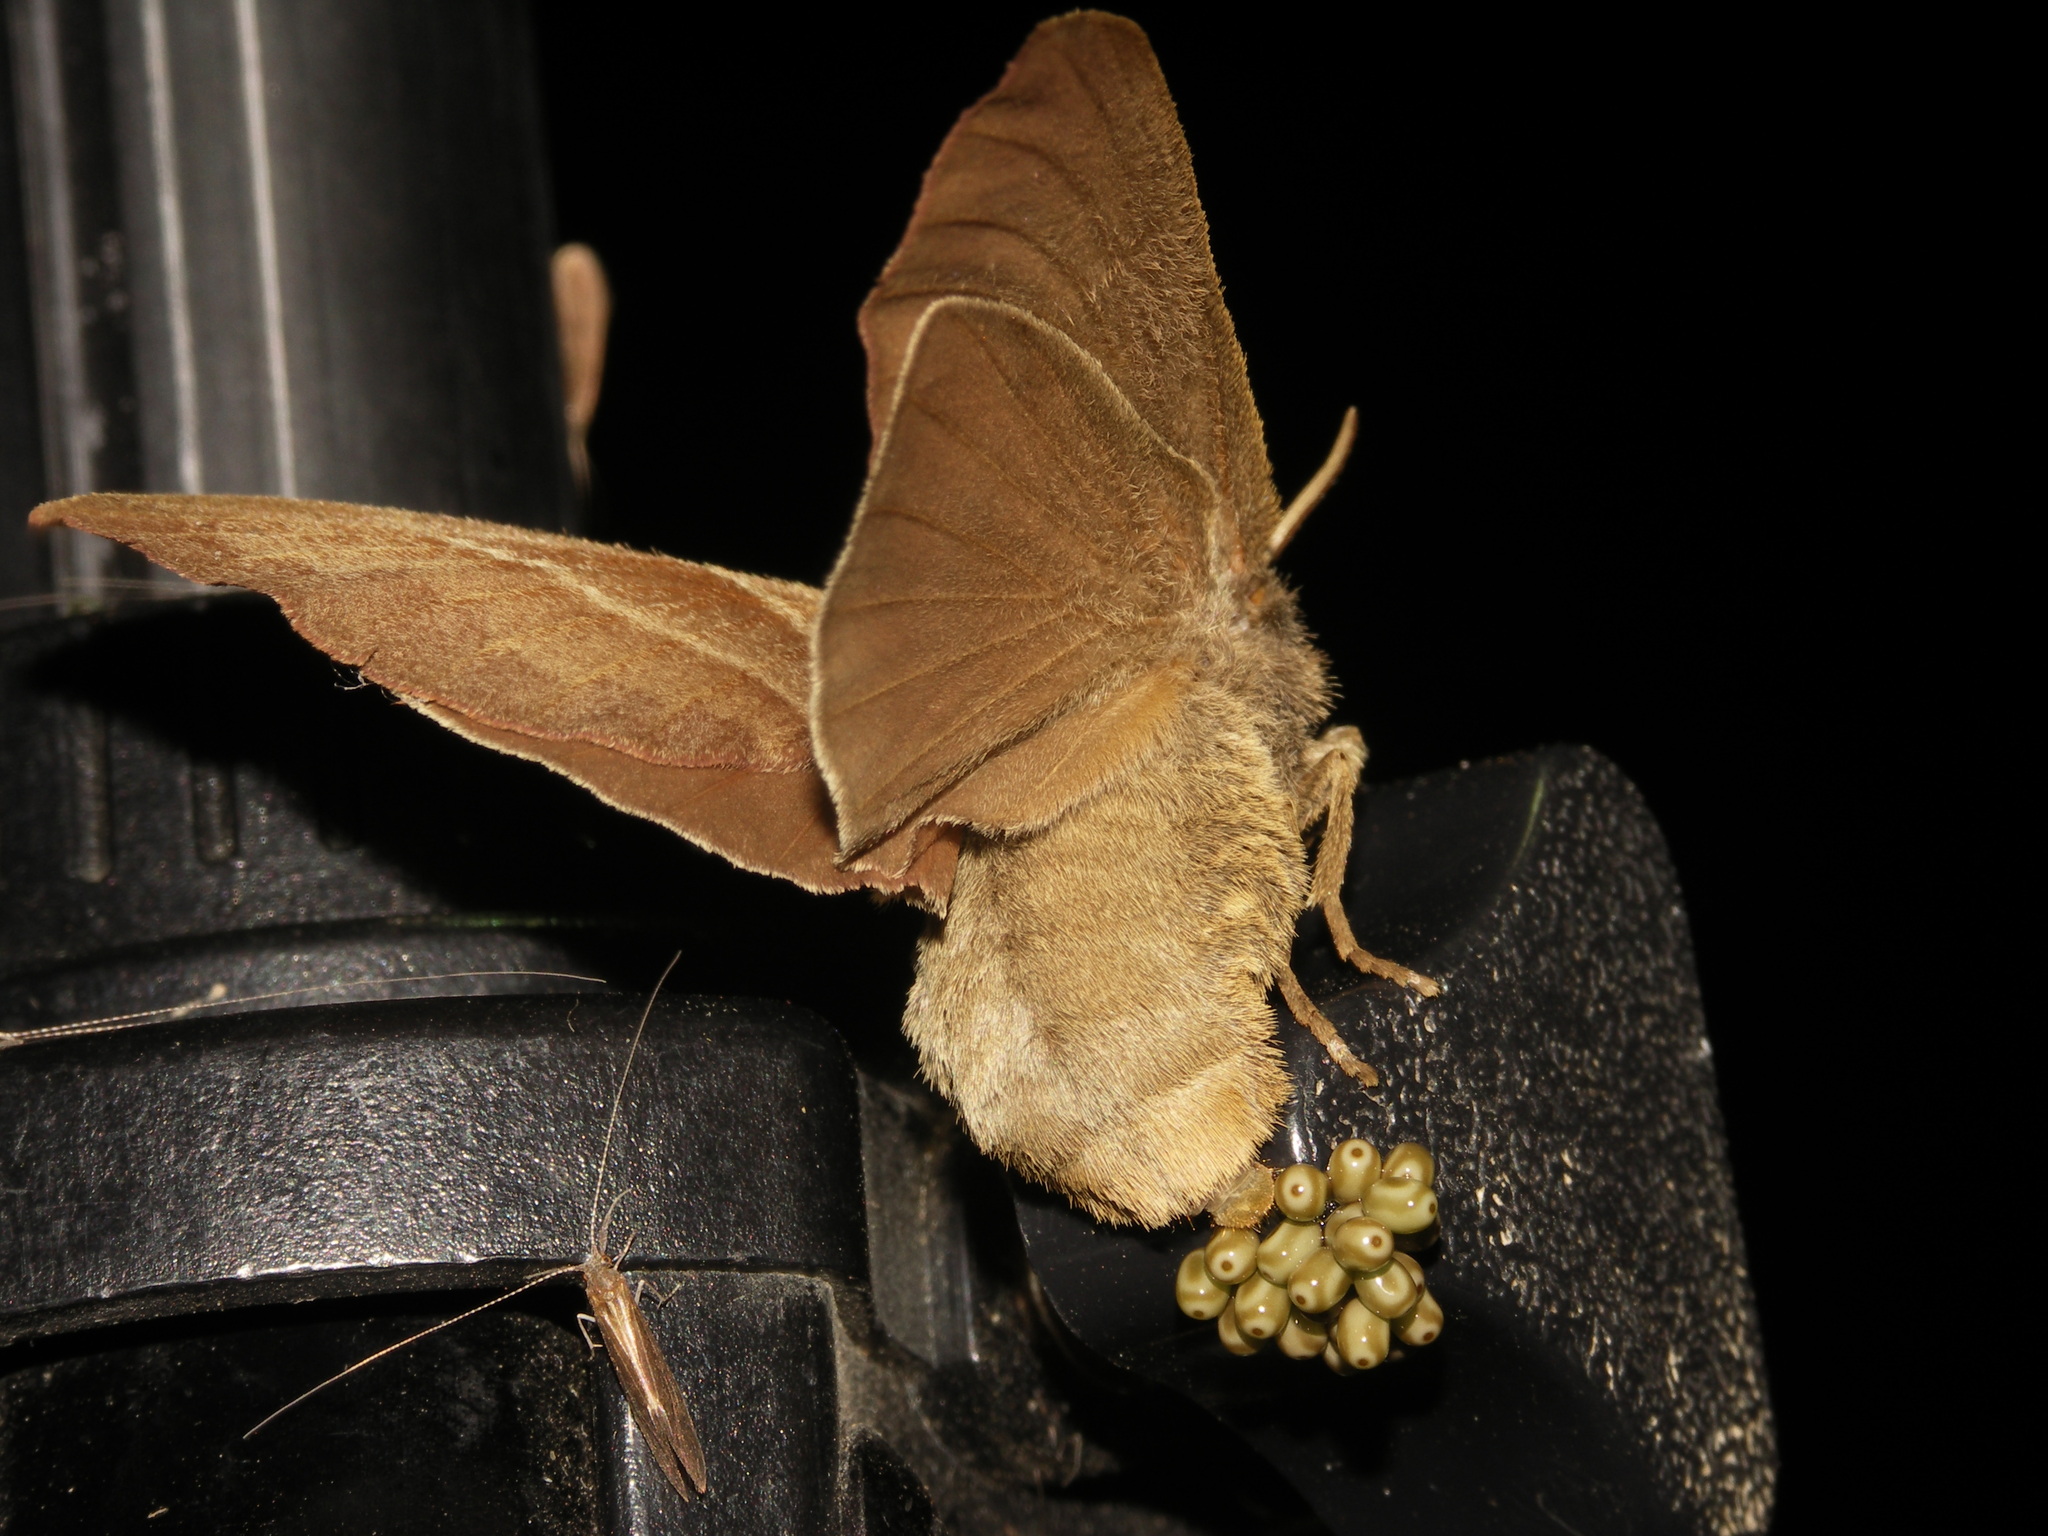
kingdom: Animalia
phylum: Arthropoda
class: Insecta
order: Lepidoptera
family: Lasiocampidae
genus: Macrothylacia
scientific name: Macrothylacia rubi
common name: Fox moth
